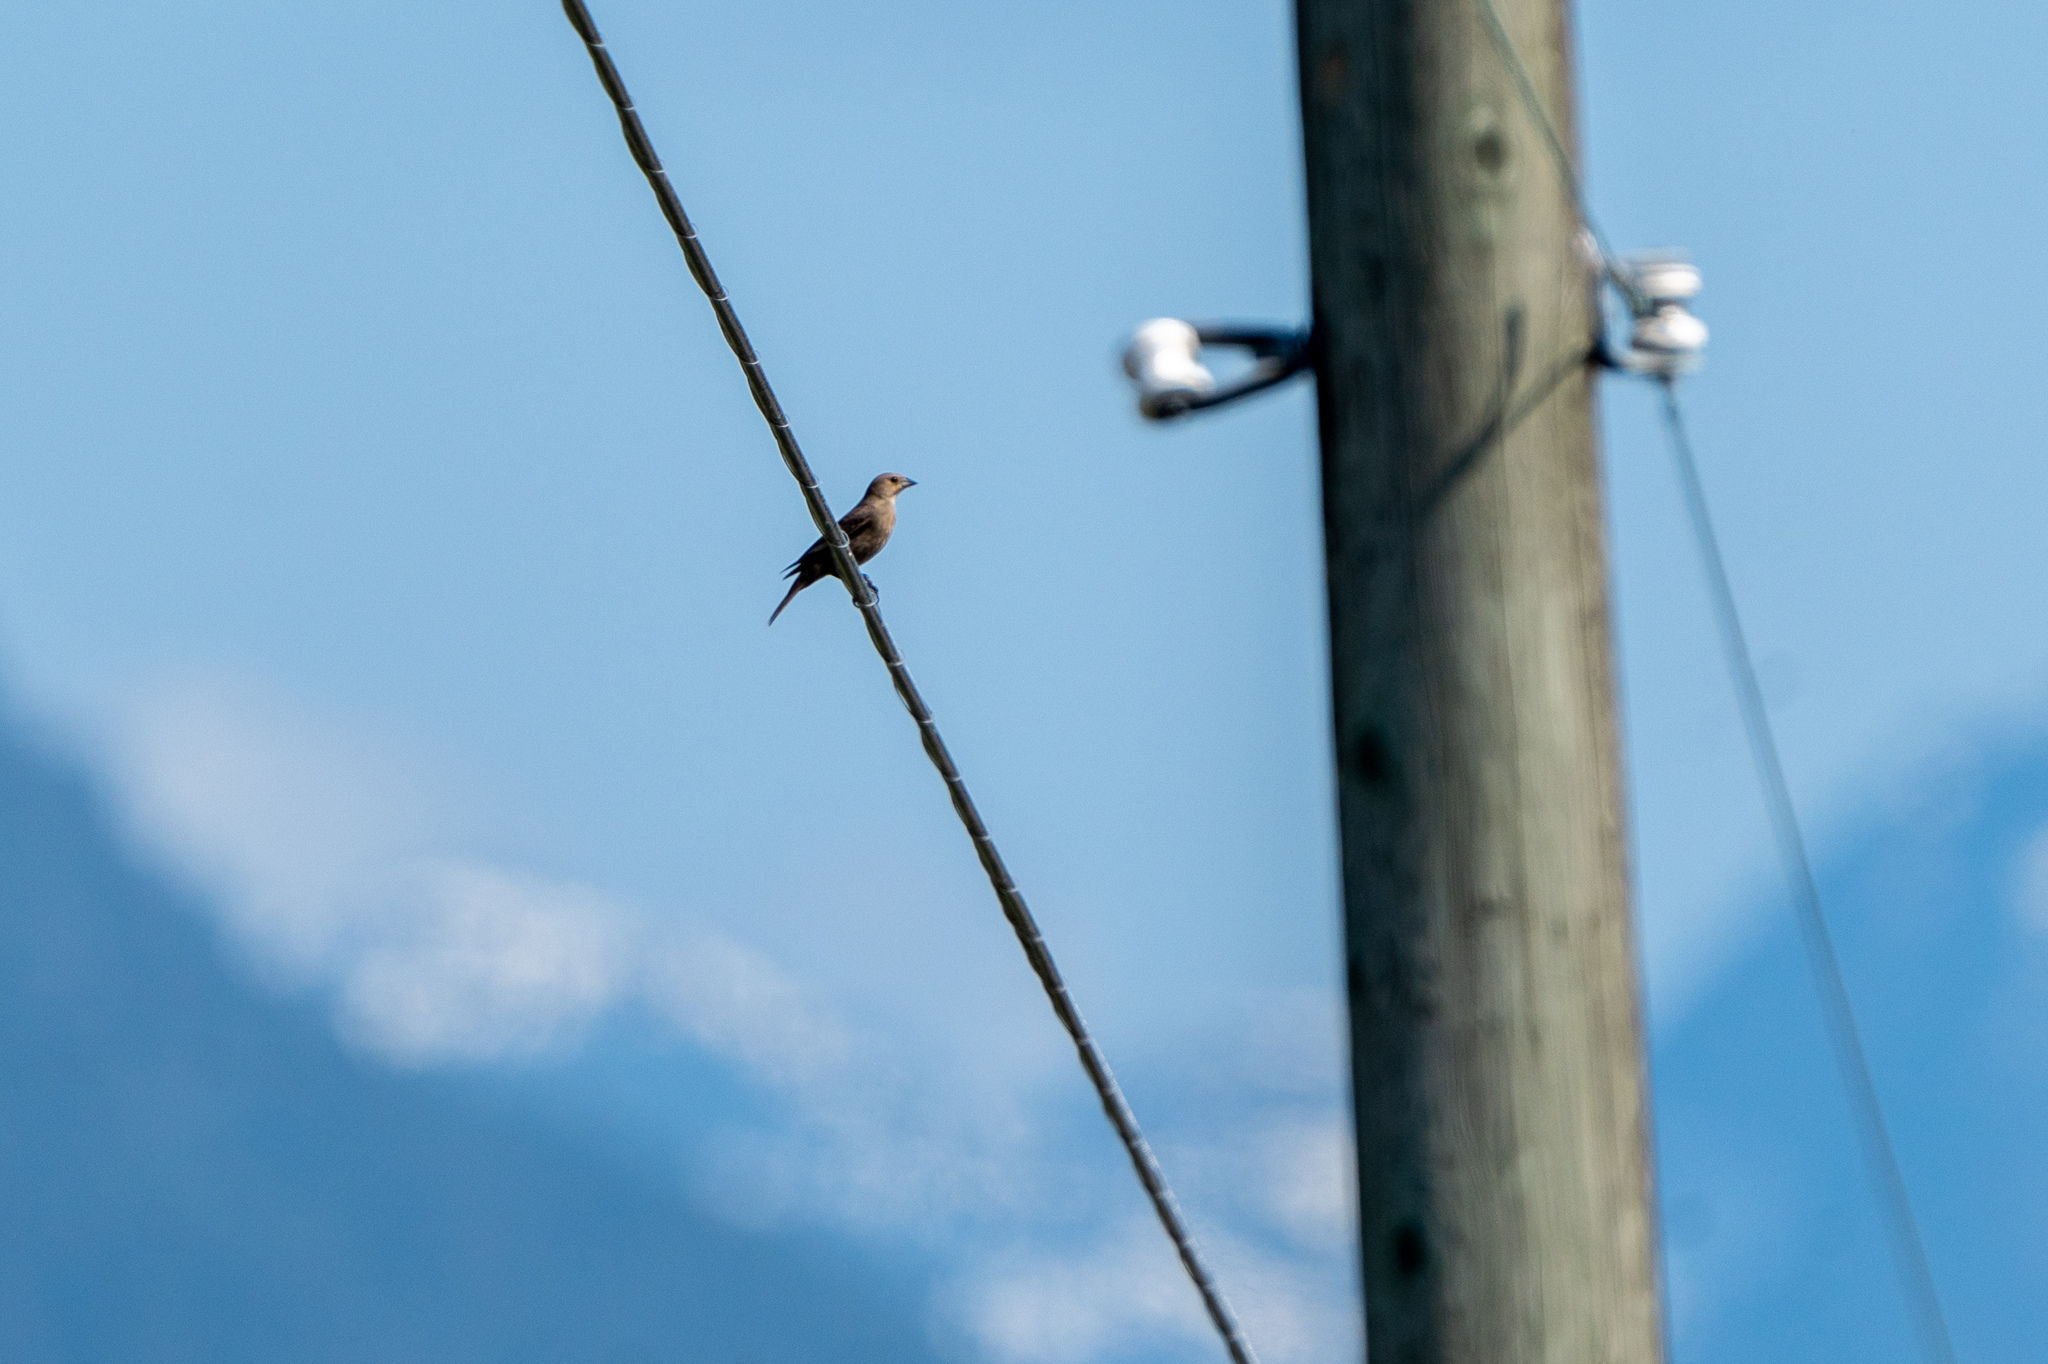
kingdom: Animalia
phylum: Chordata
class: Aves
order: Passeriformes
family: Icteridae
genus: Molothrus
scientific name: Molothrus ater
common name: Brown-headed cowbird
